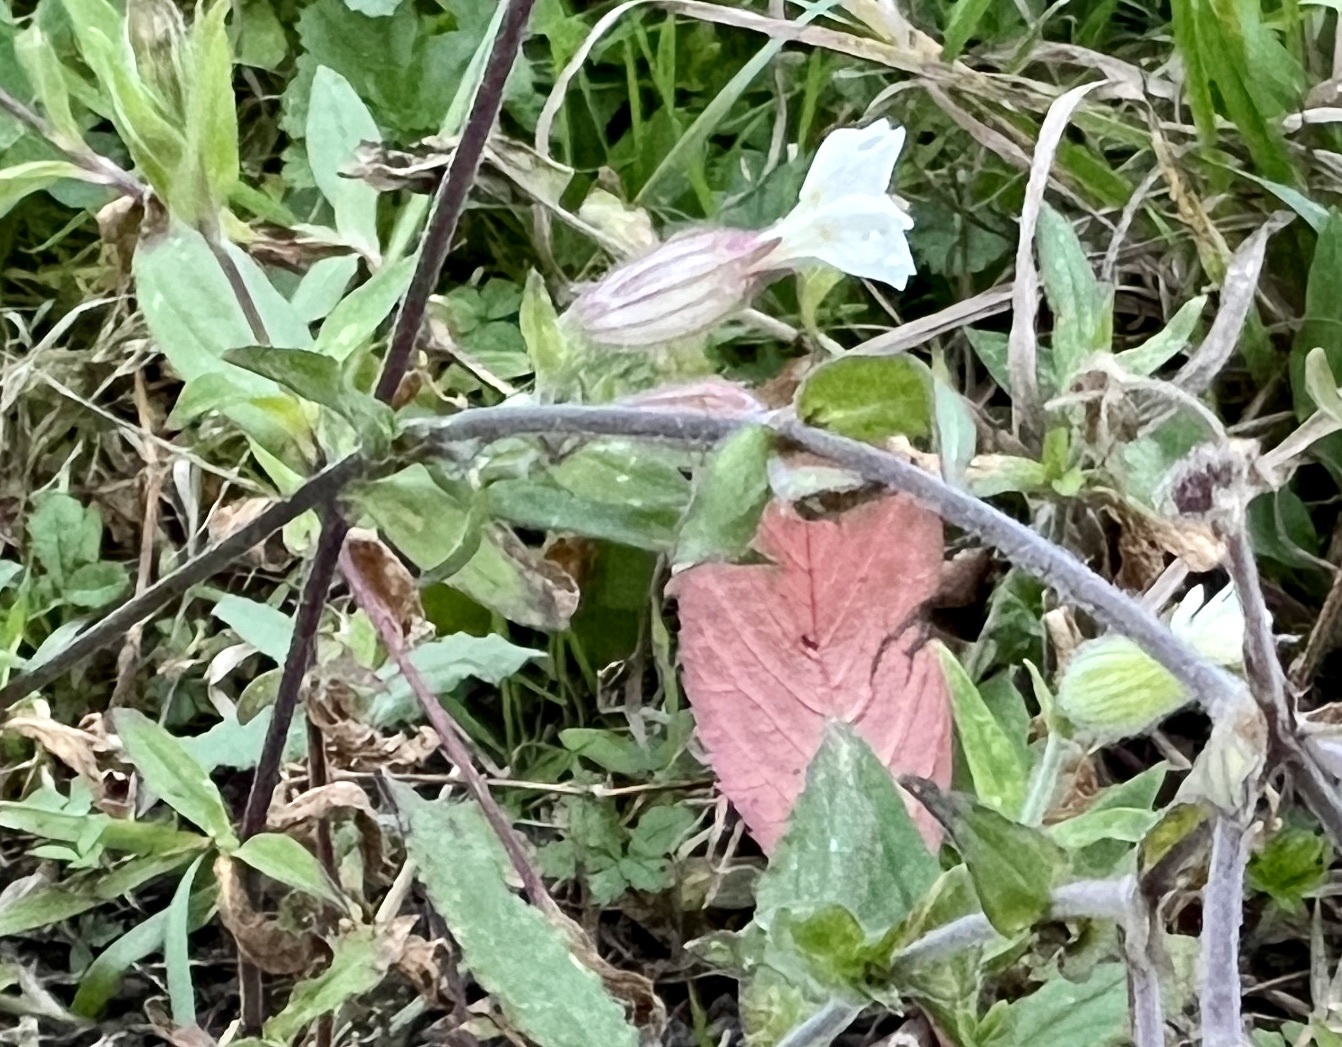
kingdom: Plantae
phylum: Tracheophyta
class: Magnoliopsida
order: Caryophyllales
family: Caryophyllaceae
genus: Silene
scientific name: Silene latifolia
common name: White campion
